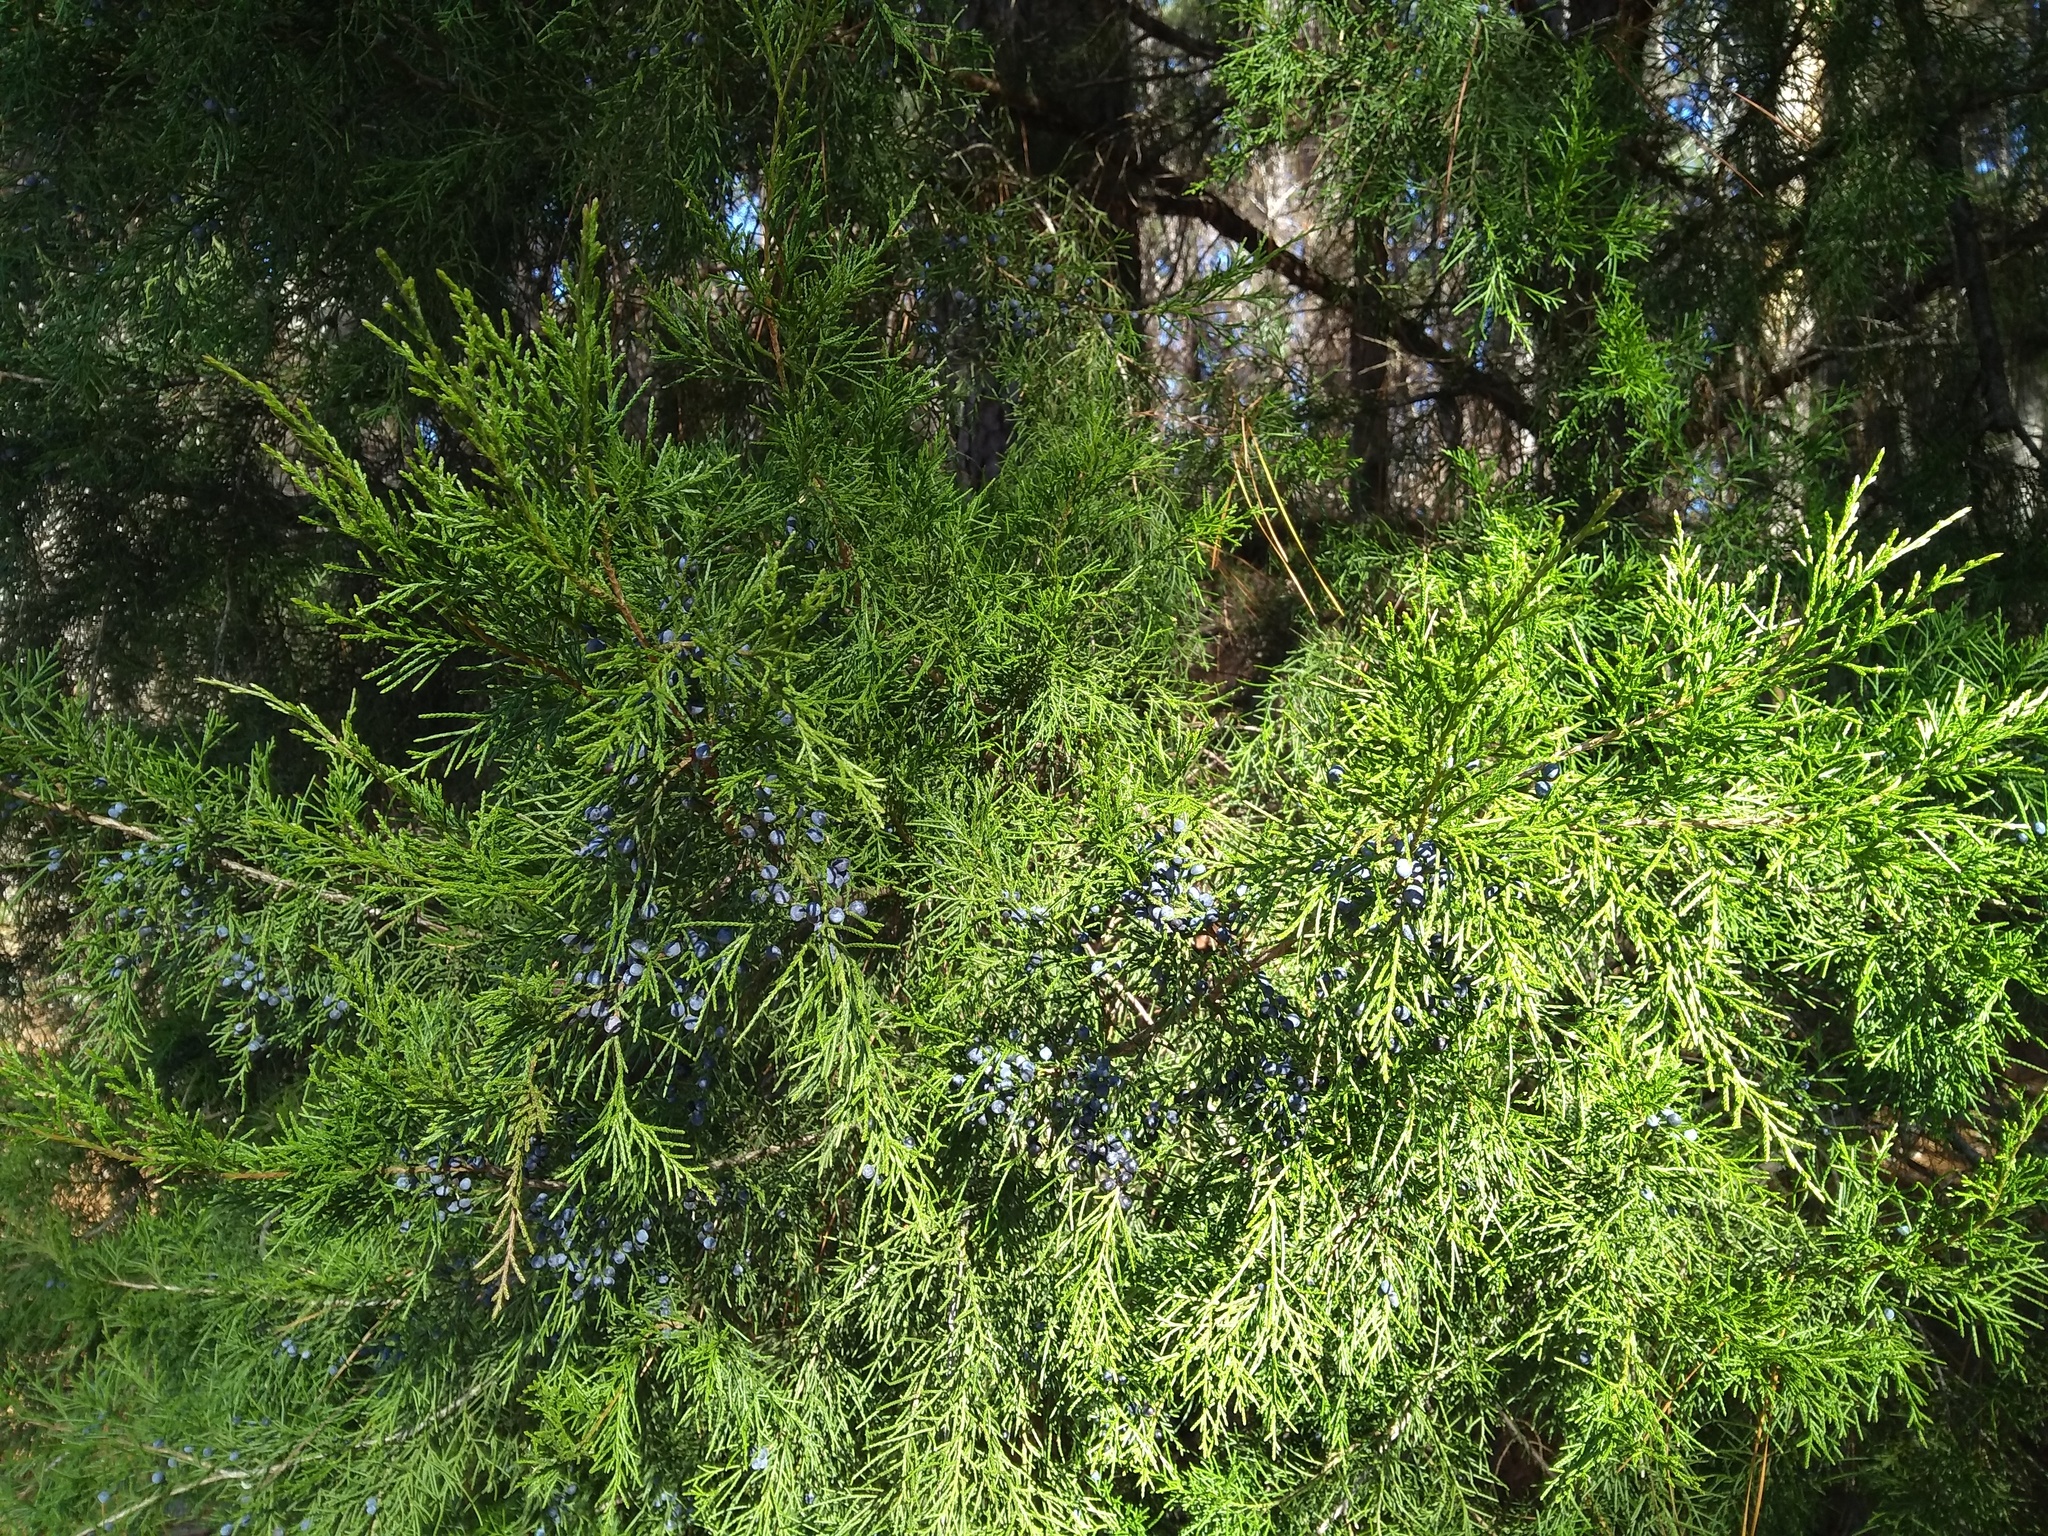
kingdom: Plantae
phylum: Tracheophyta
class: Pinopsida
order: Pinales
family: Cupressaceae
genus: Juniperus
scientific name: Juniperus virginiana
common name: Red juniper
